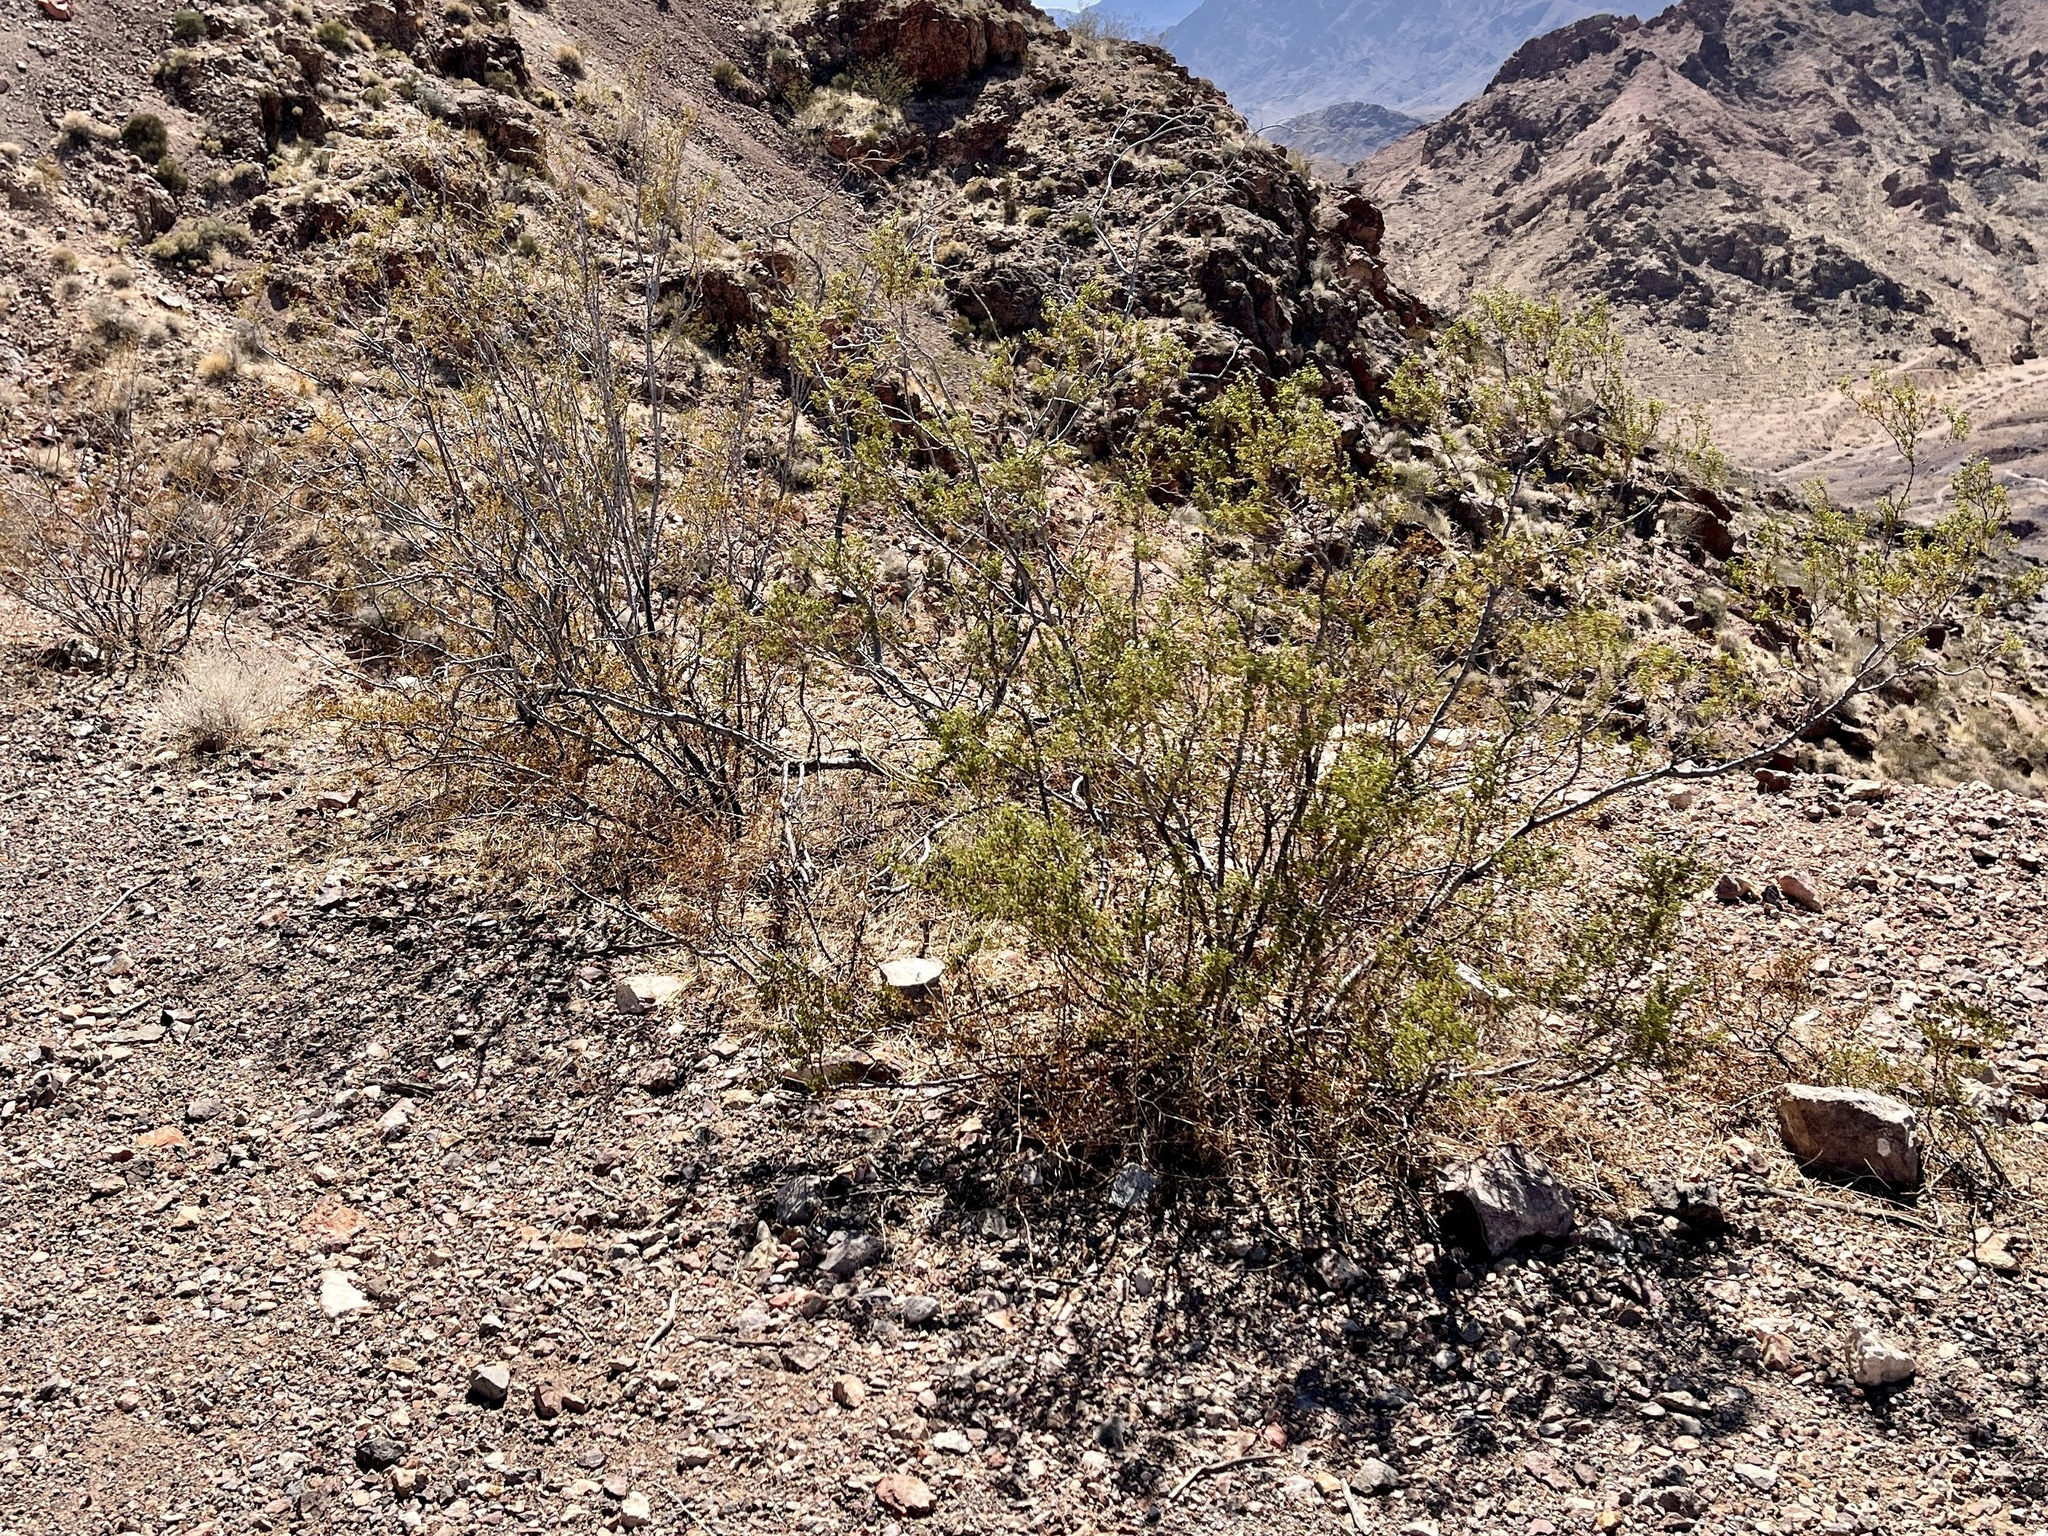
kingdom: Plantae
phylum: Tracheophyta
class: Magnoliopsida
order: Zygophyllales
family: Zygophyllaceae
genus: Larrea
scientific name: Larrea tridentata
